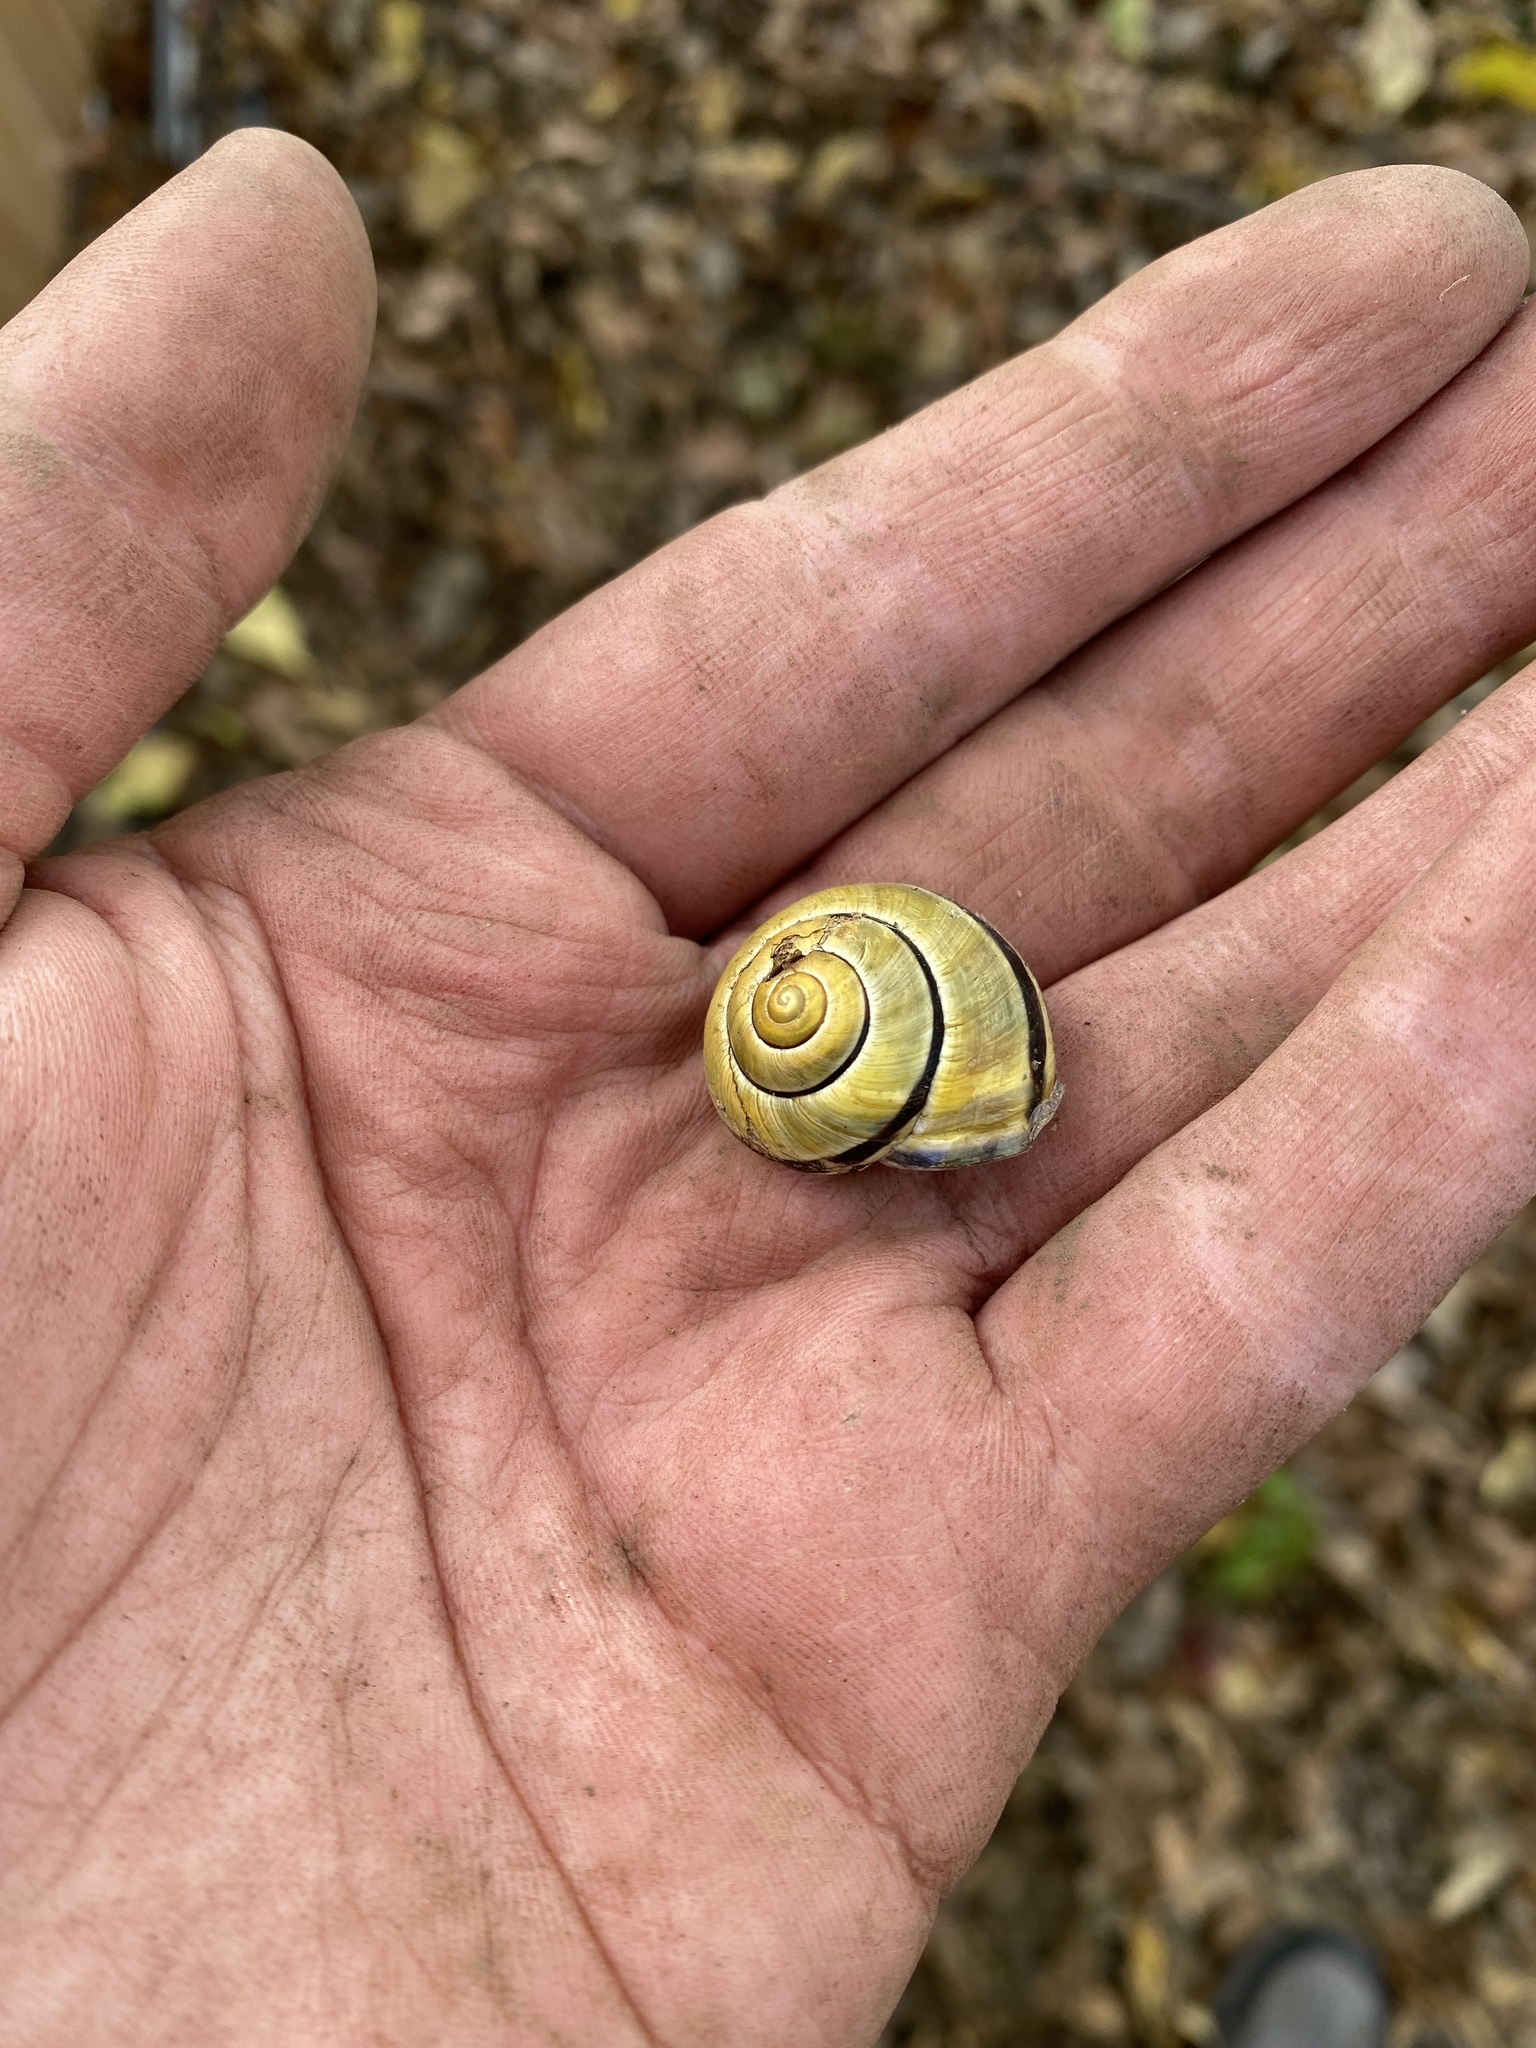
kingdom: Animalia
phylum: Mollusca
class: Gastropoda
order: Stylommatophora
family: Helicidae
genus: Cepaea
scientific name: Cepaea nemoralis
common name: Grovesnail
